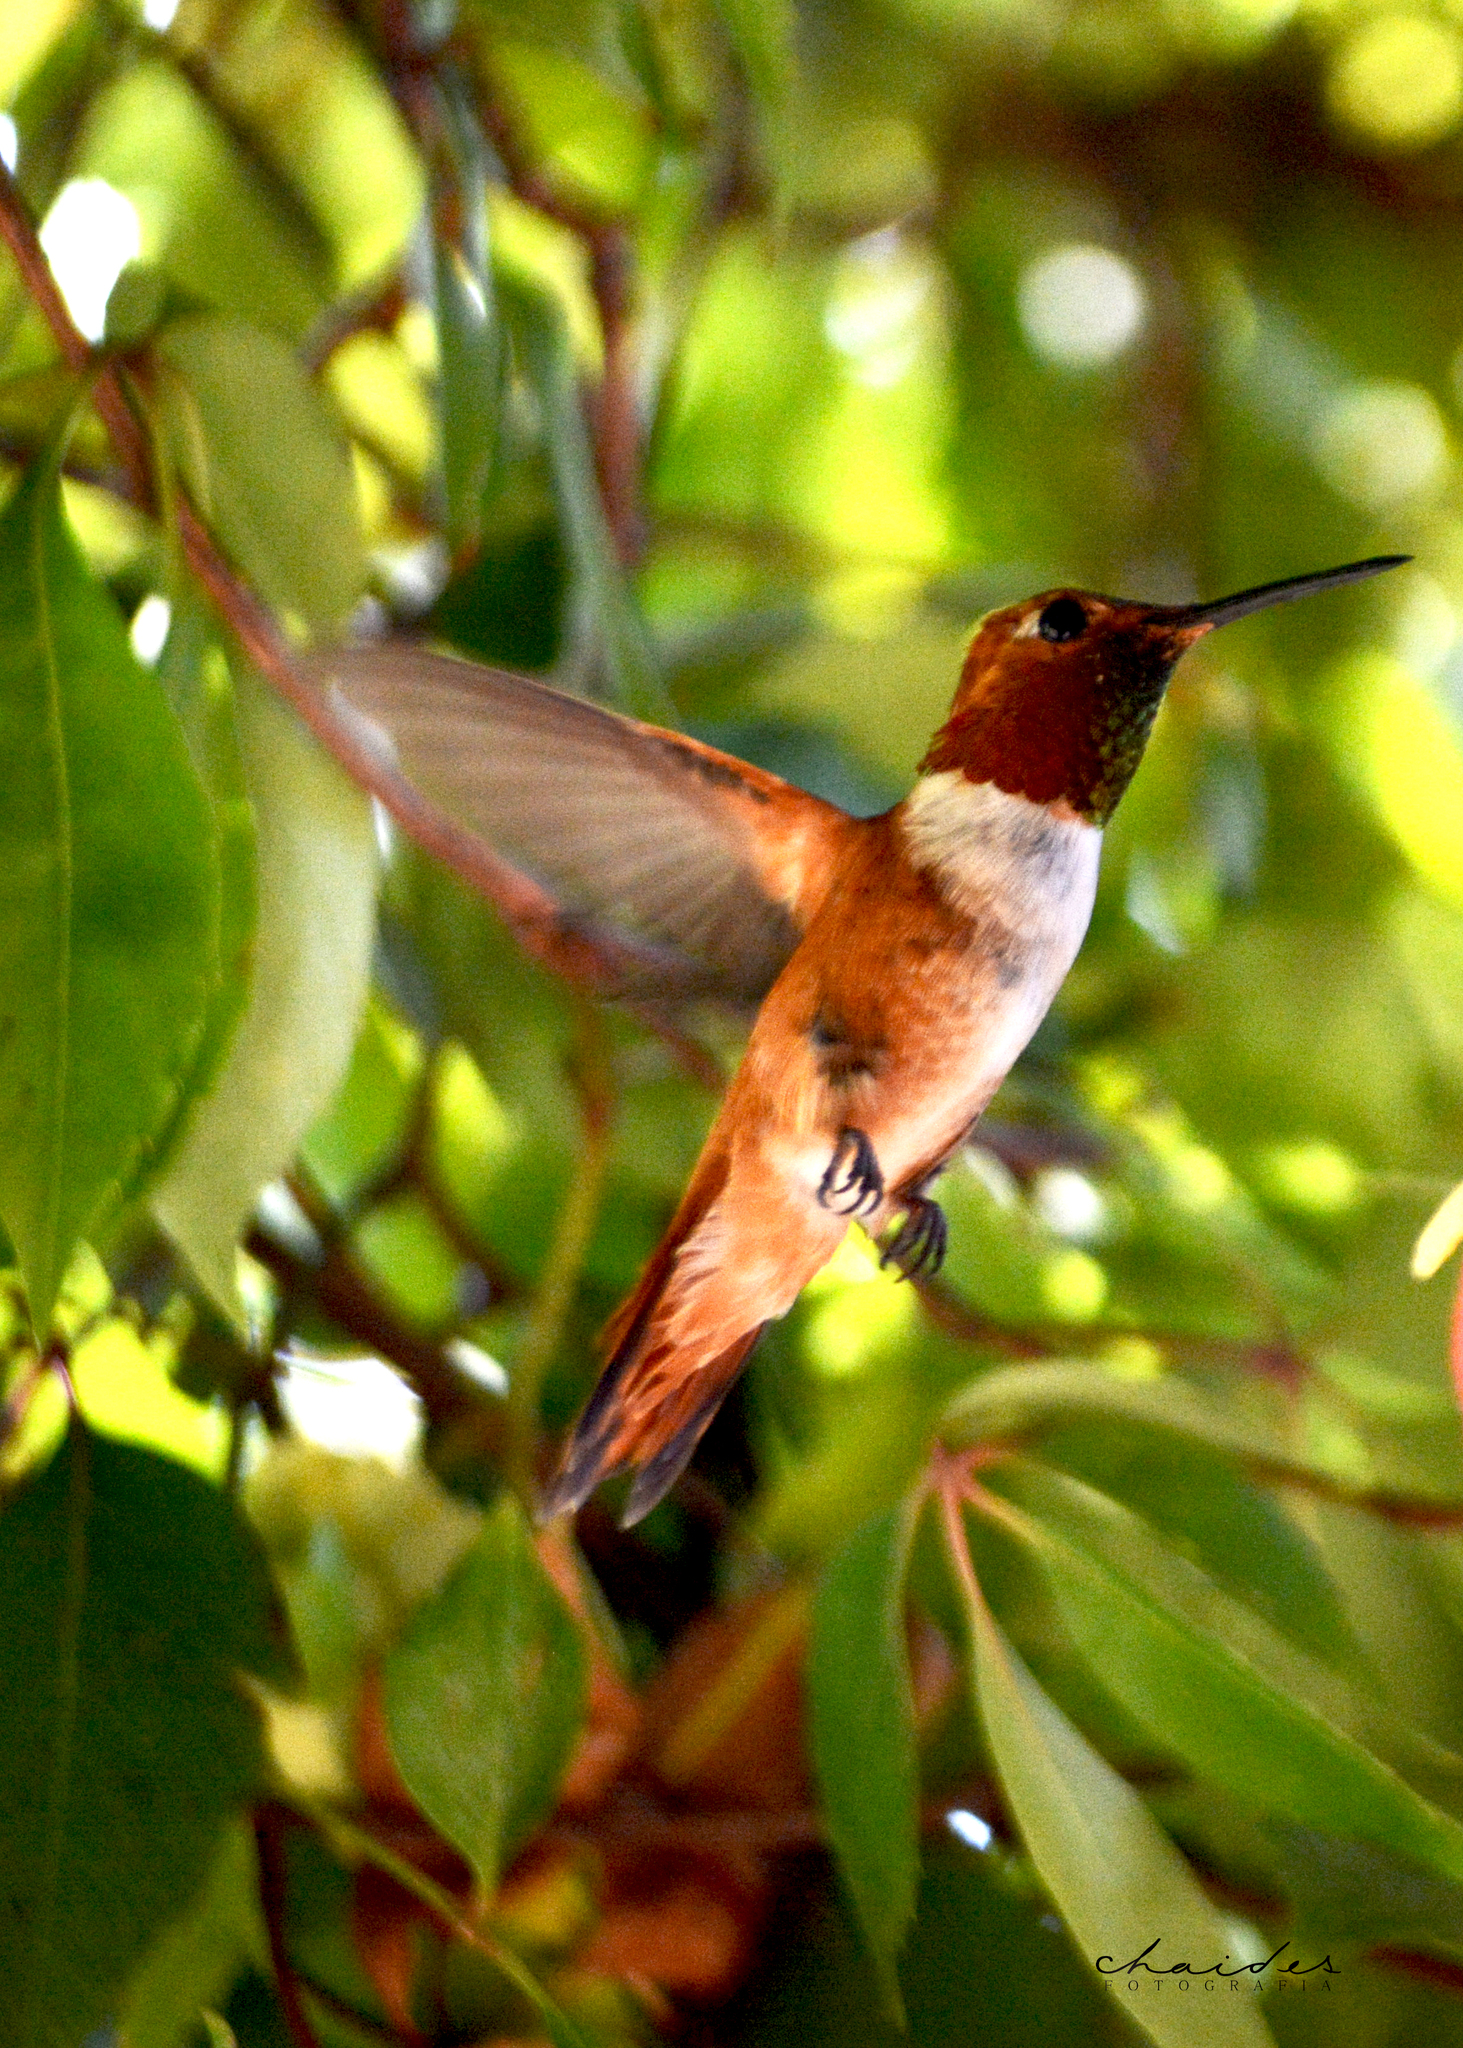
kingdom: Animalia
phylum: Chordata
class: Aves
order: Apodiformes
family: Trochilidae
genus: Selasphorus
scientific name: Selasphorus rufus
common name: Rufous hummingbird
